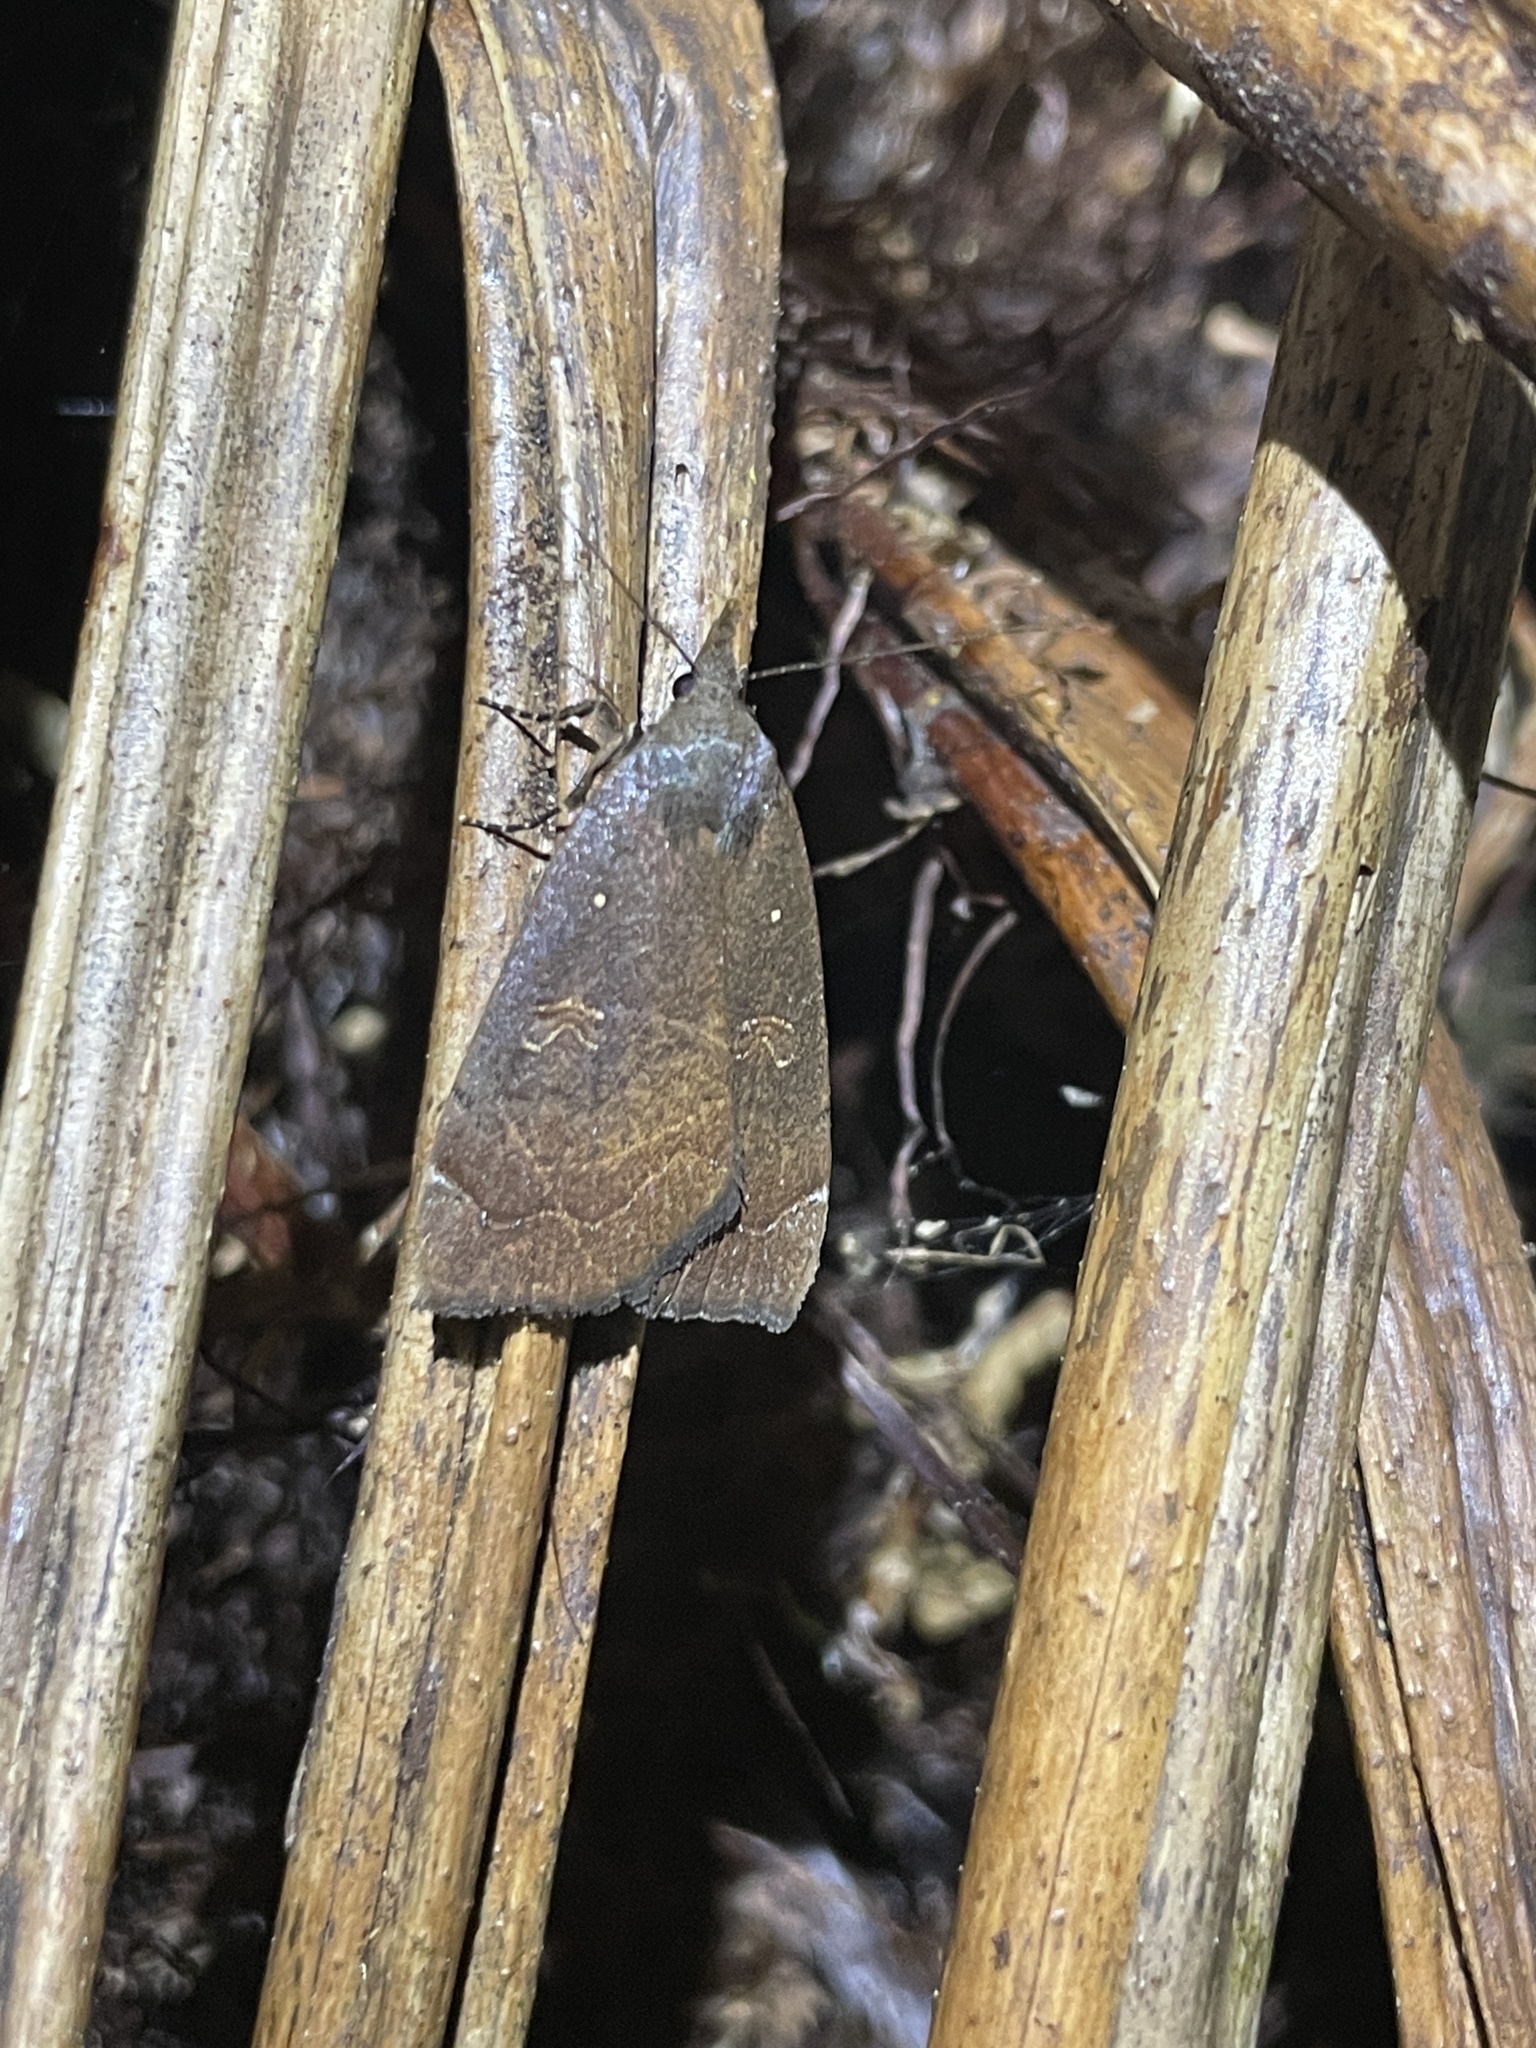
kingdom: Animalia
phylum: Arthropoda
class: Insecta
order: Lepidoptera
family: Erebidae
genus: Rhapsa
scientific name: Rhapsa scotosialis
